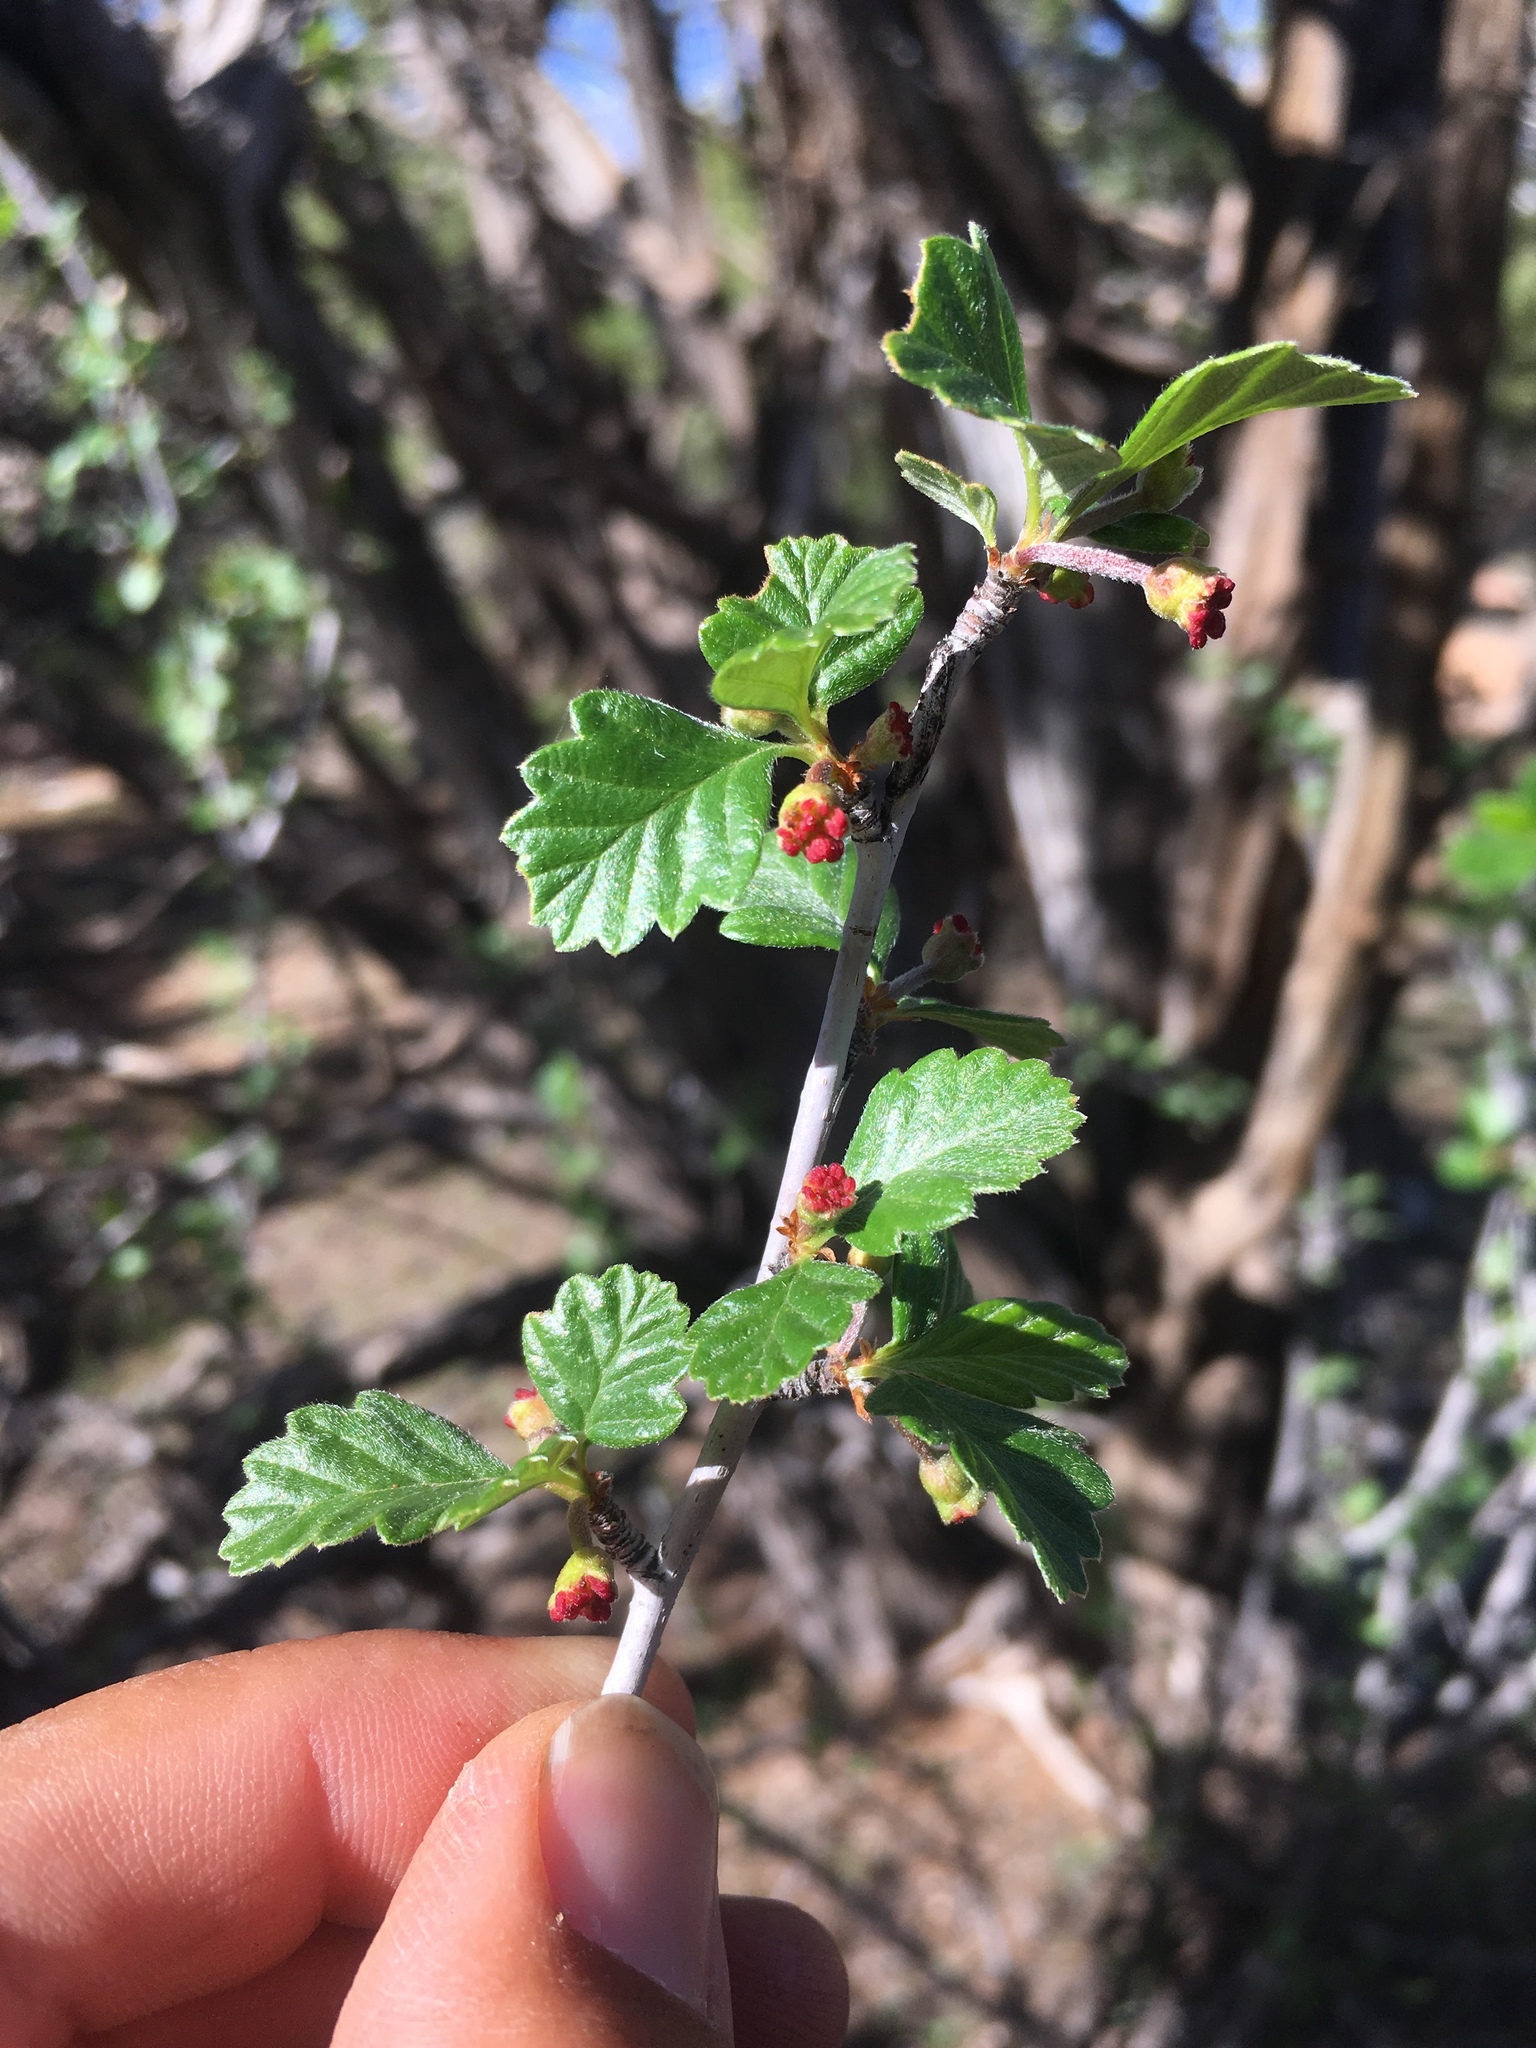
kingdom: Plantae
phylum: Tracheophyta
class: Magnoliopsida
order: Rosales
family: Rosaceae
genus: Cercocarpus
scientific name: Cercocarpus montanus
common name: Alder-leaf cercocarpus
